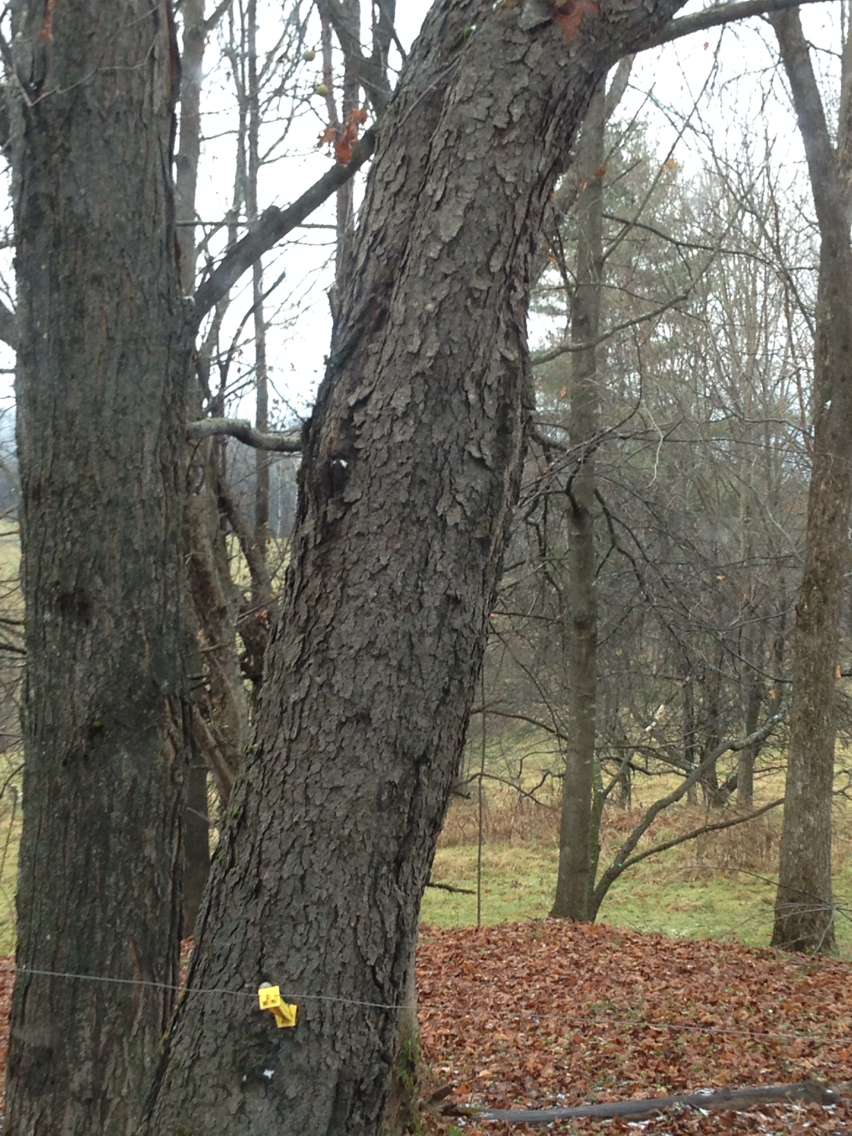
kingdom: Plantae
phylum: Tracheophyta
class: Magnoliopsida
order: Rosales
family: Rosaceae
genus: Prunus
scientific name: Prunus serotina
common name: Black cherry
